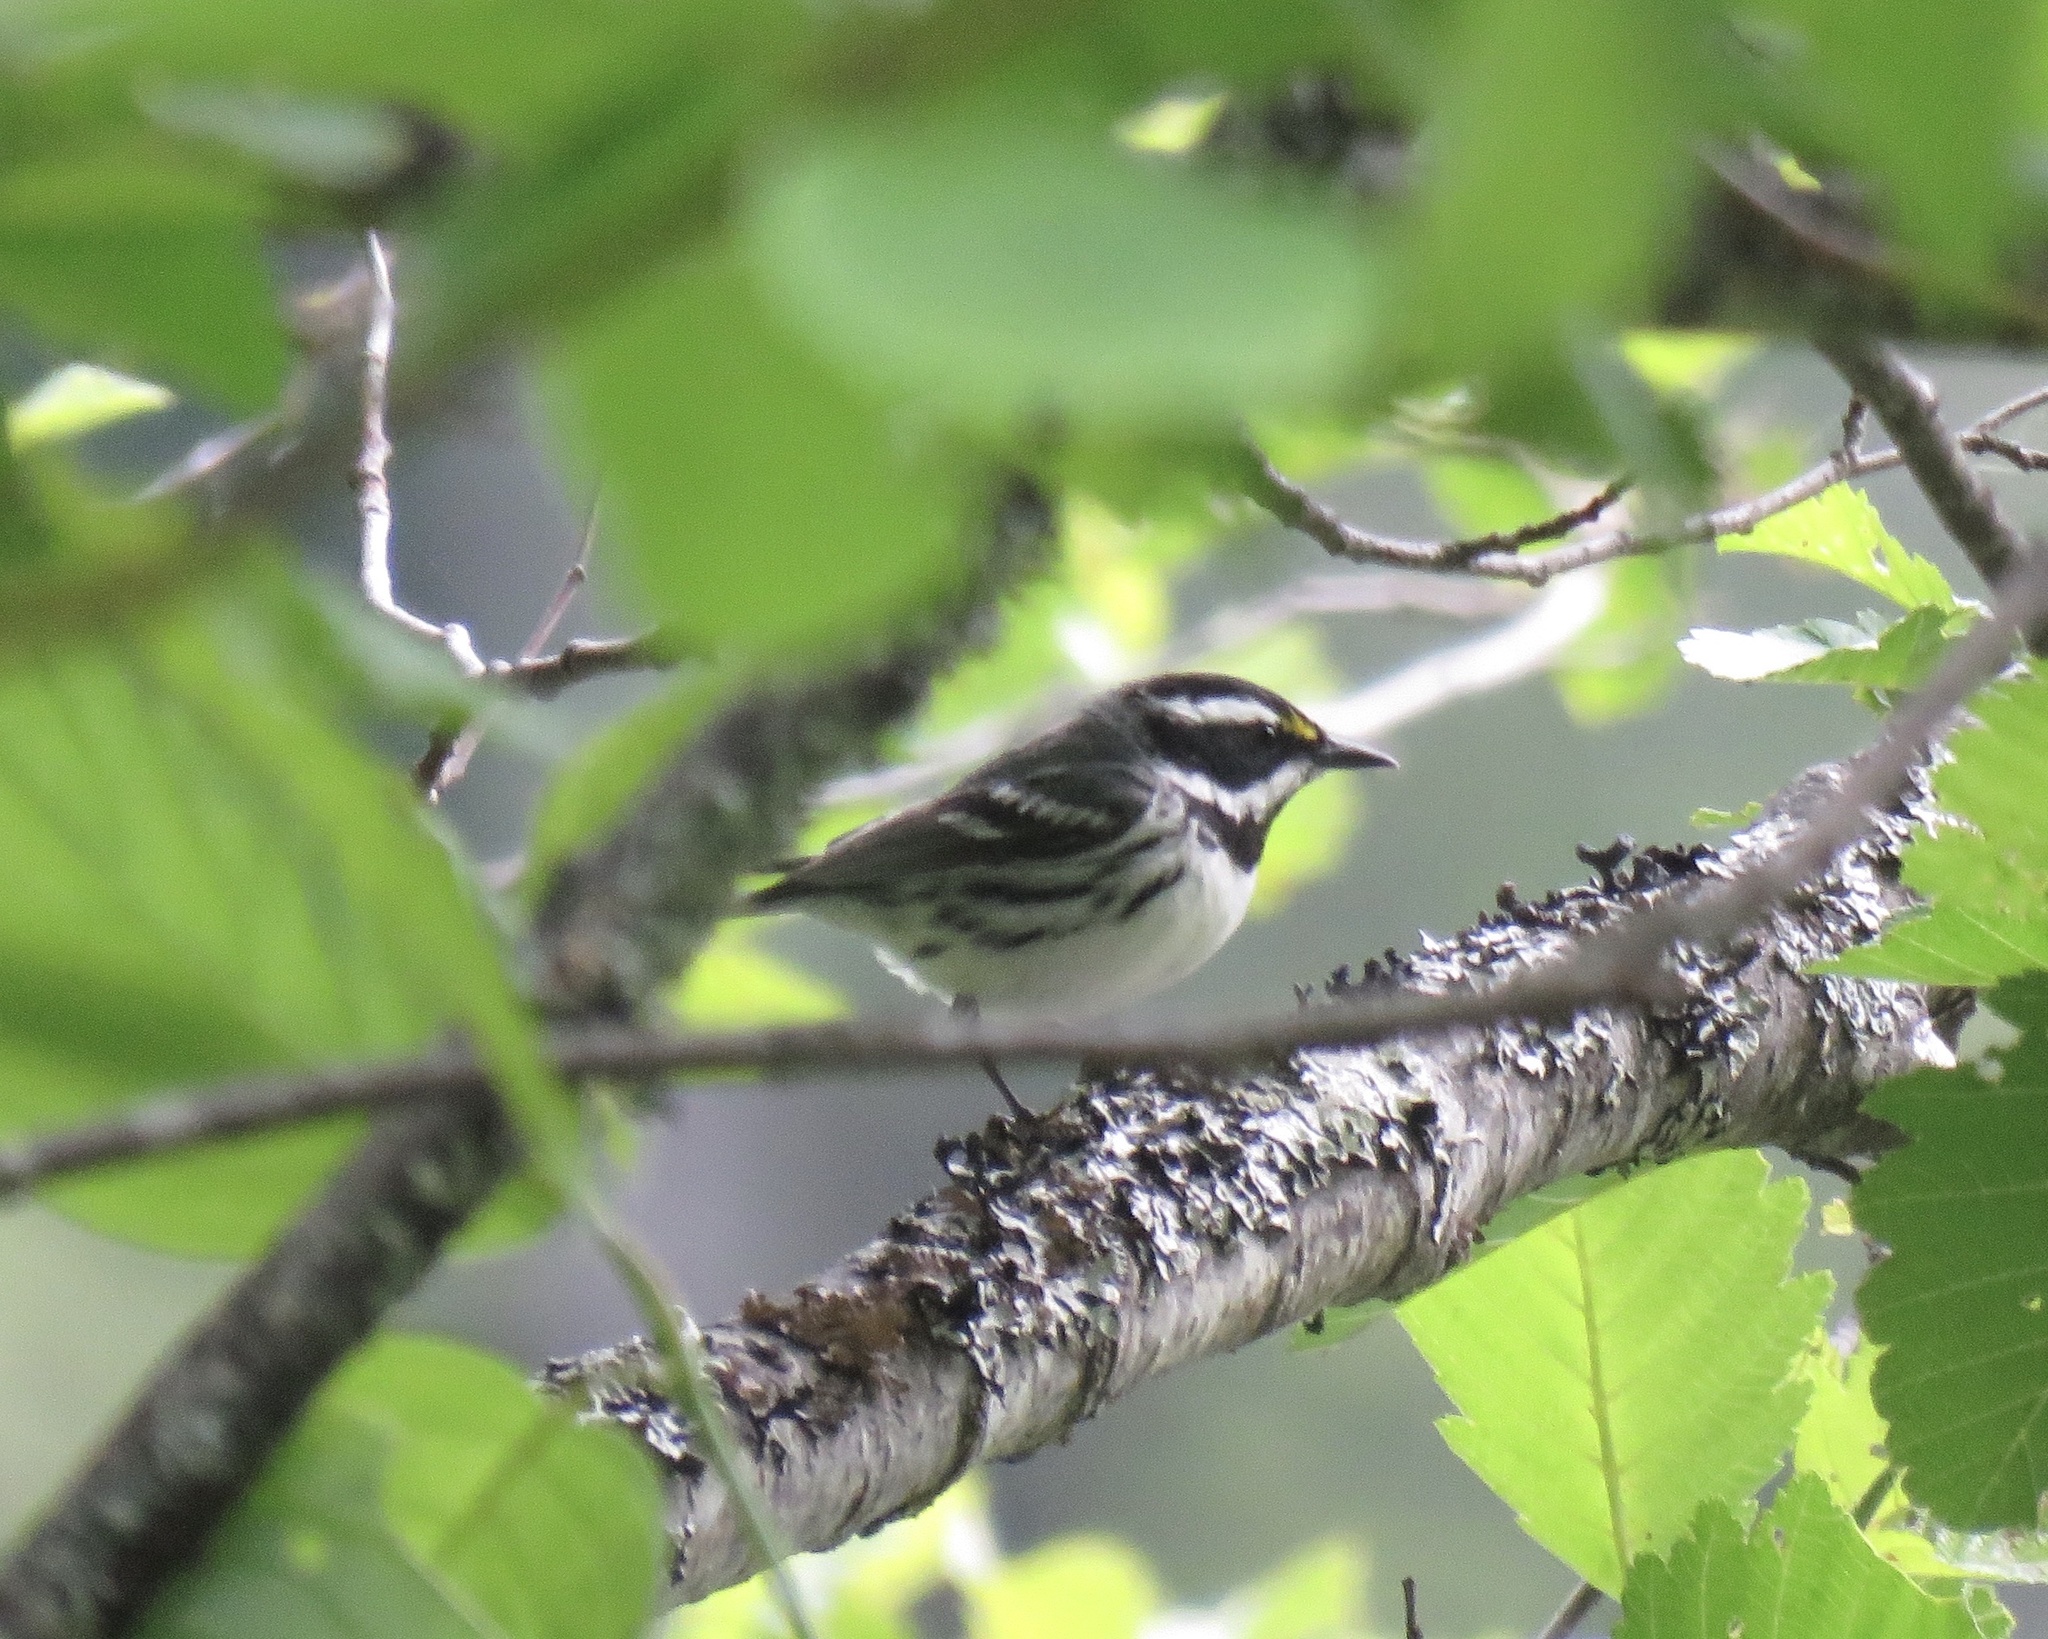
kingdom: Animalia
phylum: Chordata
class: Aves
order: Passeriformes
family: Parulidae
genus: Setophaga
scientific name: Setophaga nigrescens
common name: Black-throated gray warbler
